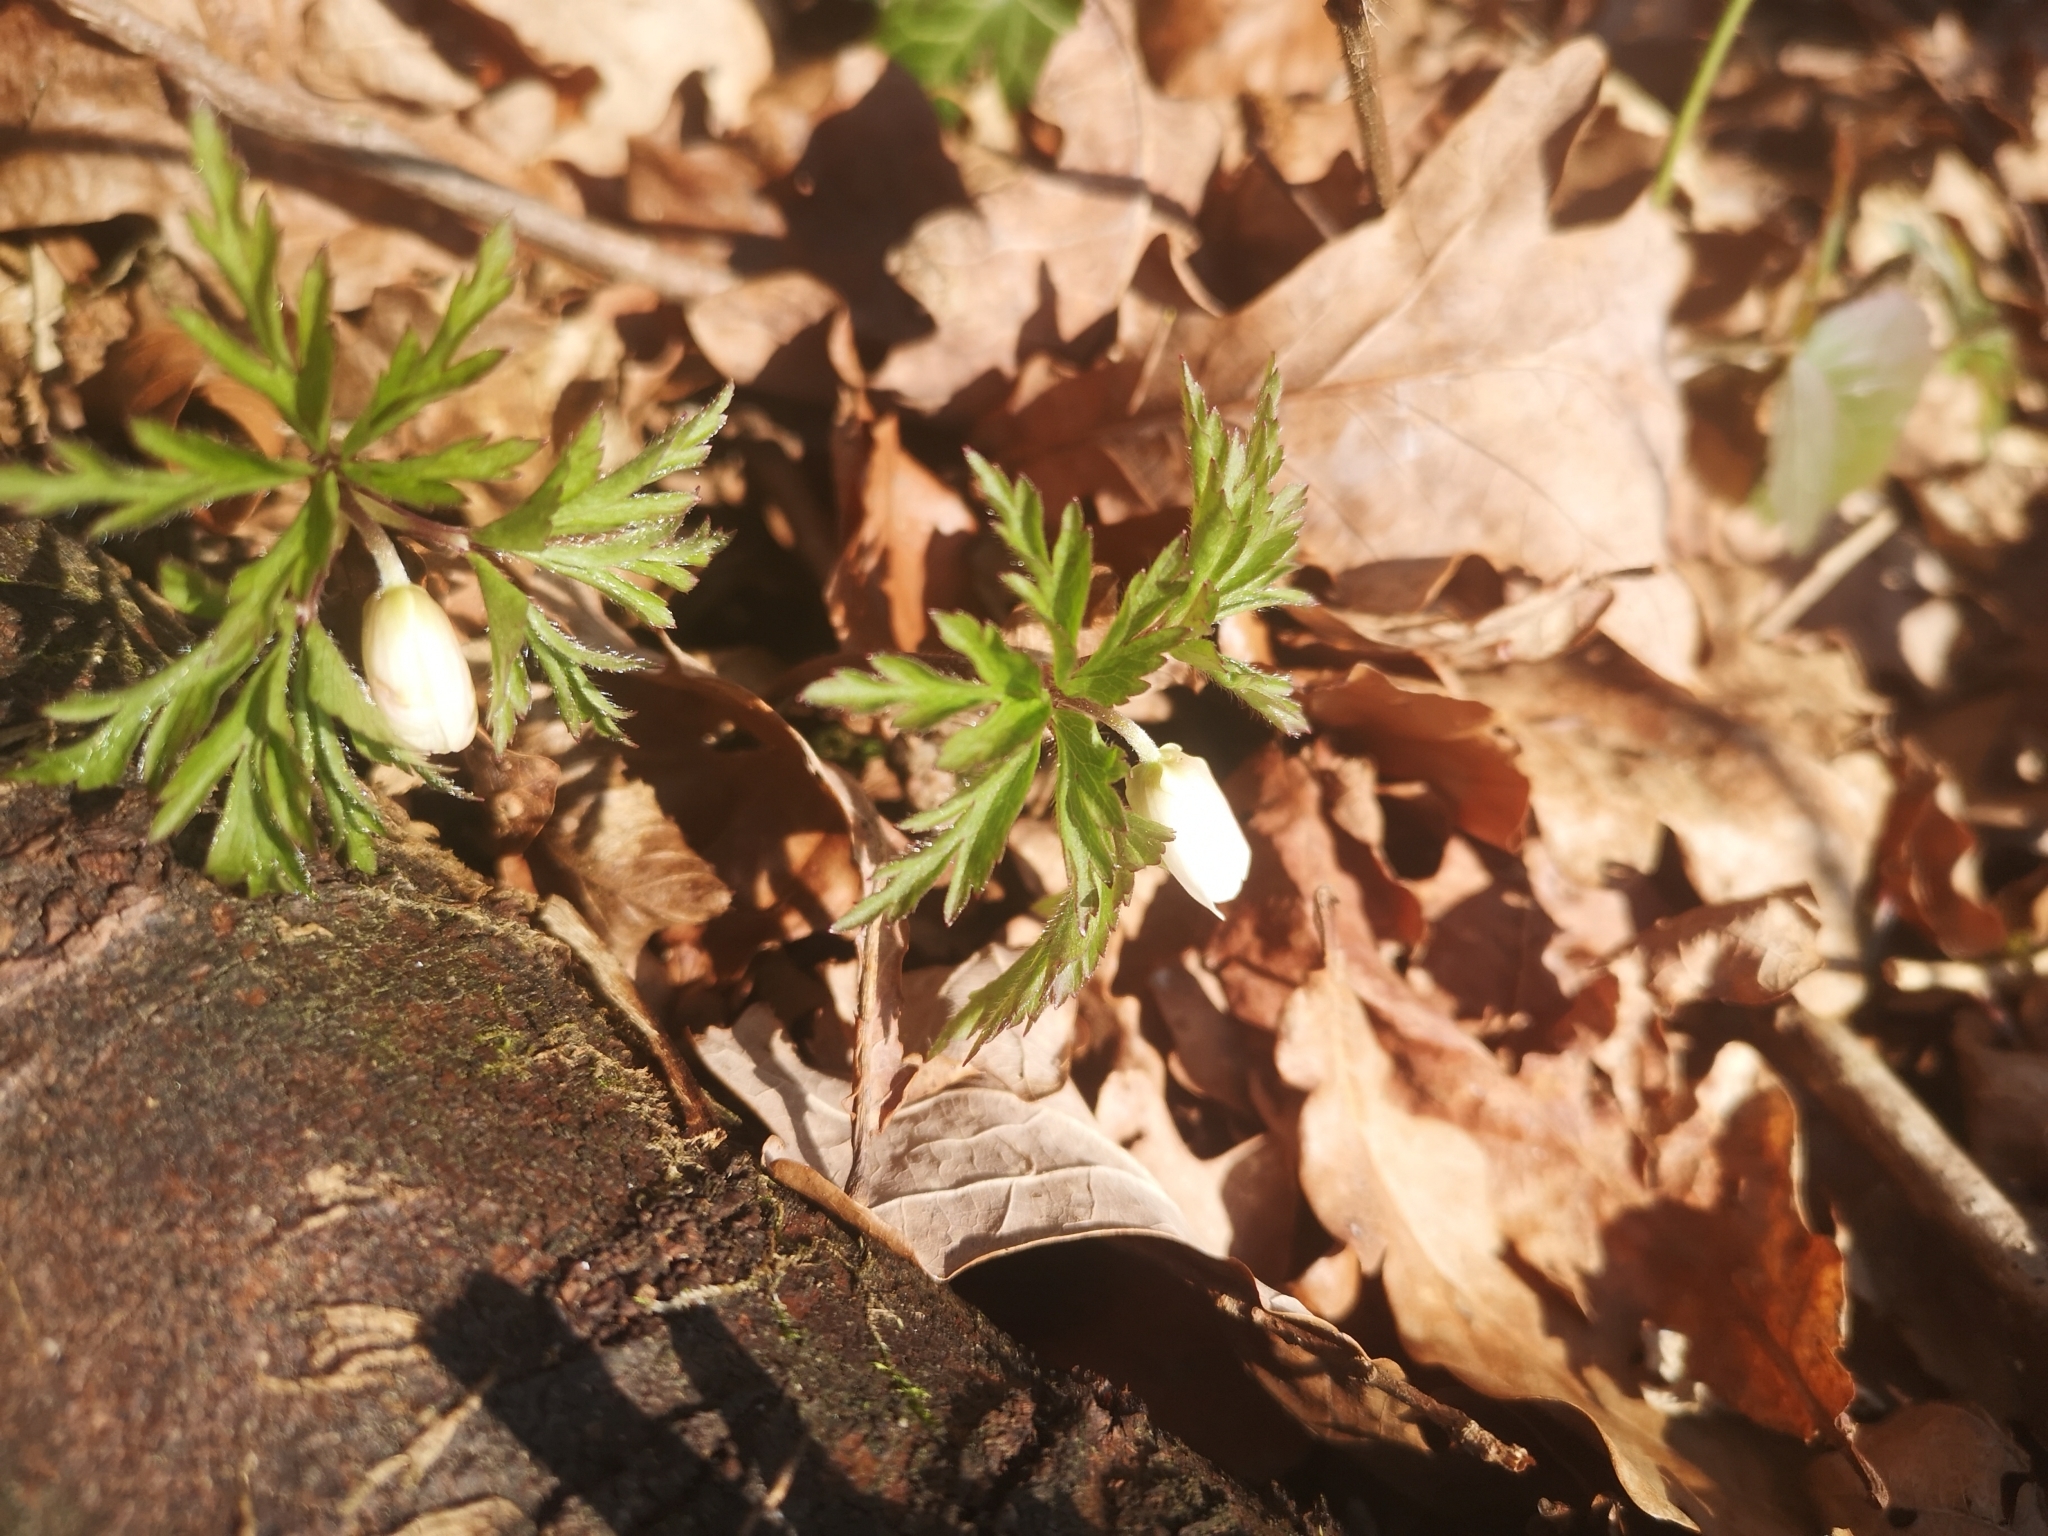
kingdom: Plantae
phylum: Tracheophyta
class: Magnoliopsida
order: Ranunculales
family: Ranunculaceae
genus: Anemone
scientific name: Anemone nemorosa
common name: Wood anemone
